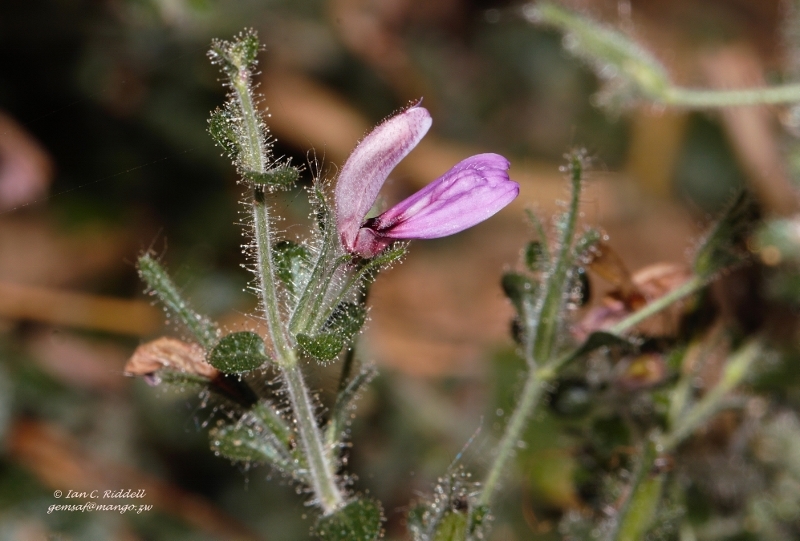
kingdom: Plantae
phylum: Tracheophyta
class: Magnoliopsida
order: Lamiales
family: Acanthaceae
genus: Brillantaisia
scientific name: Brillantaisia pubescens
